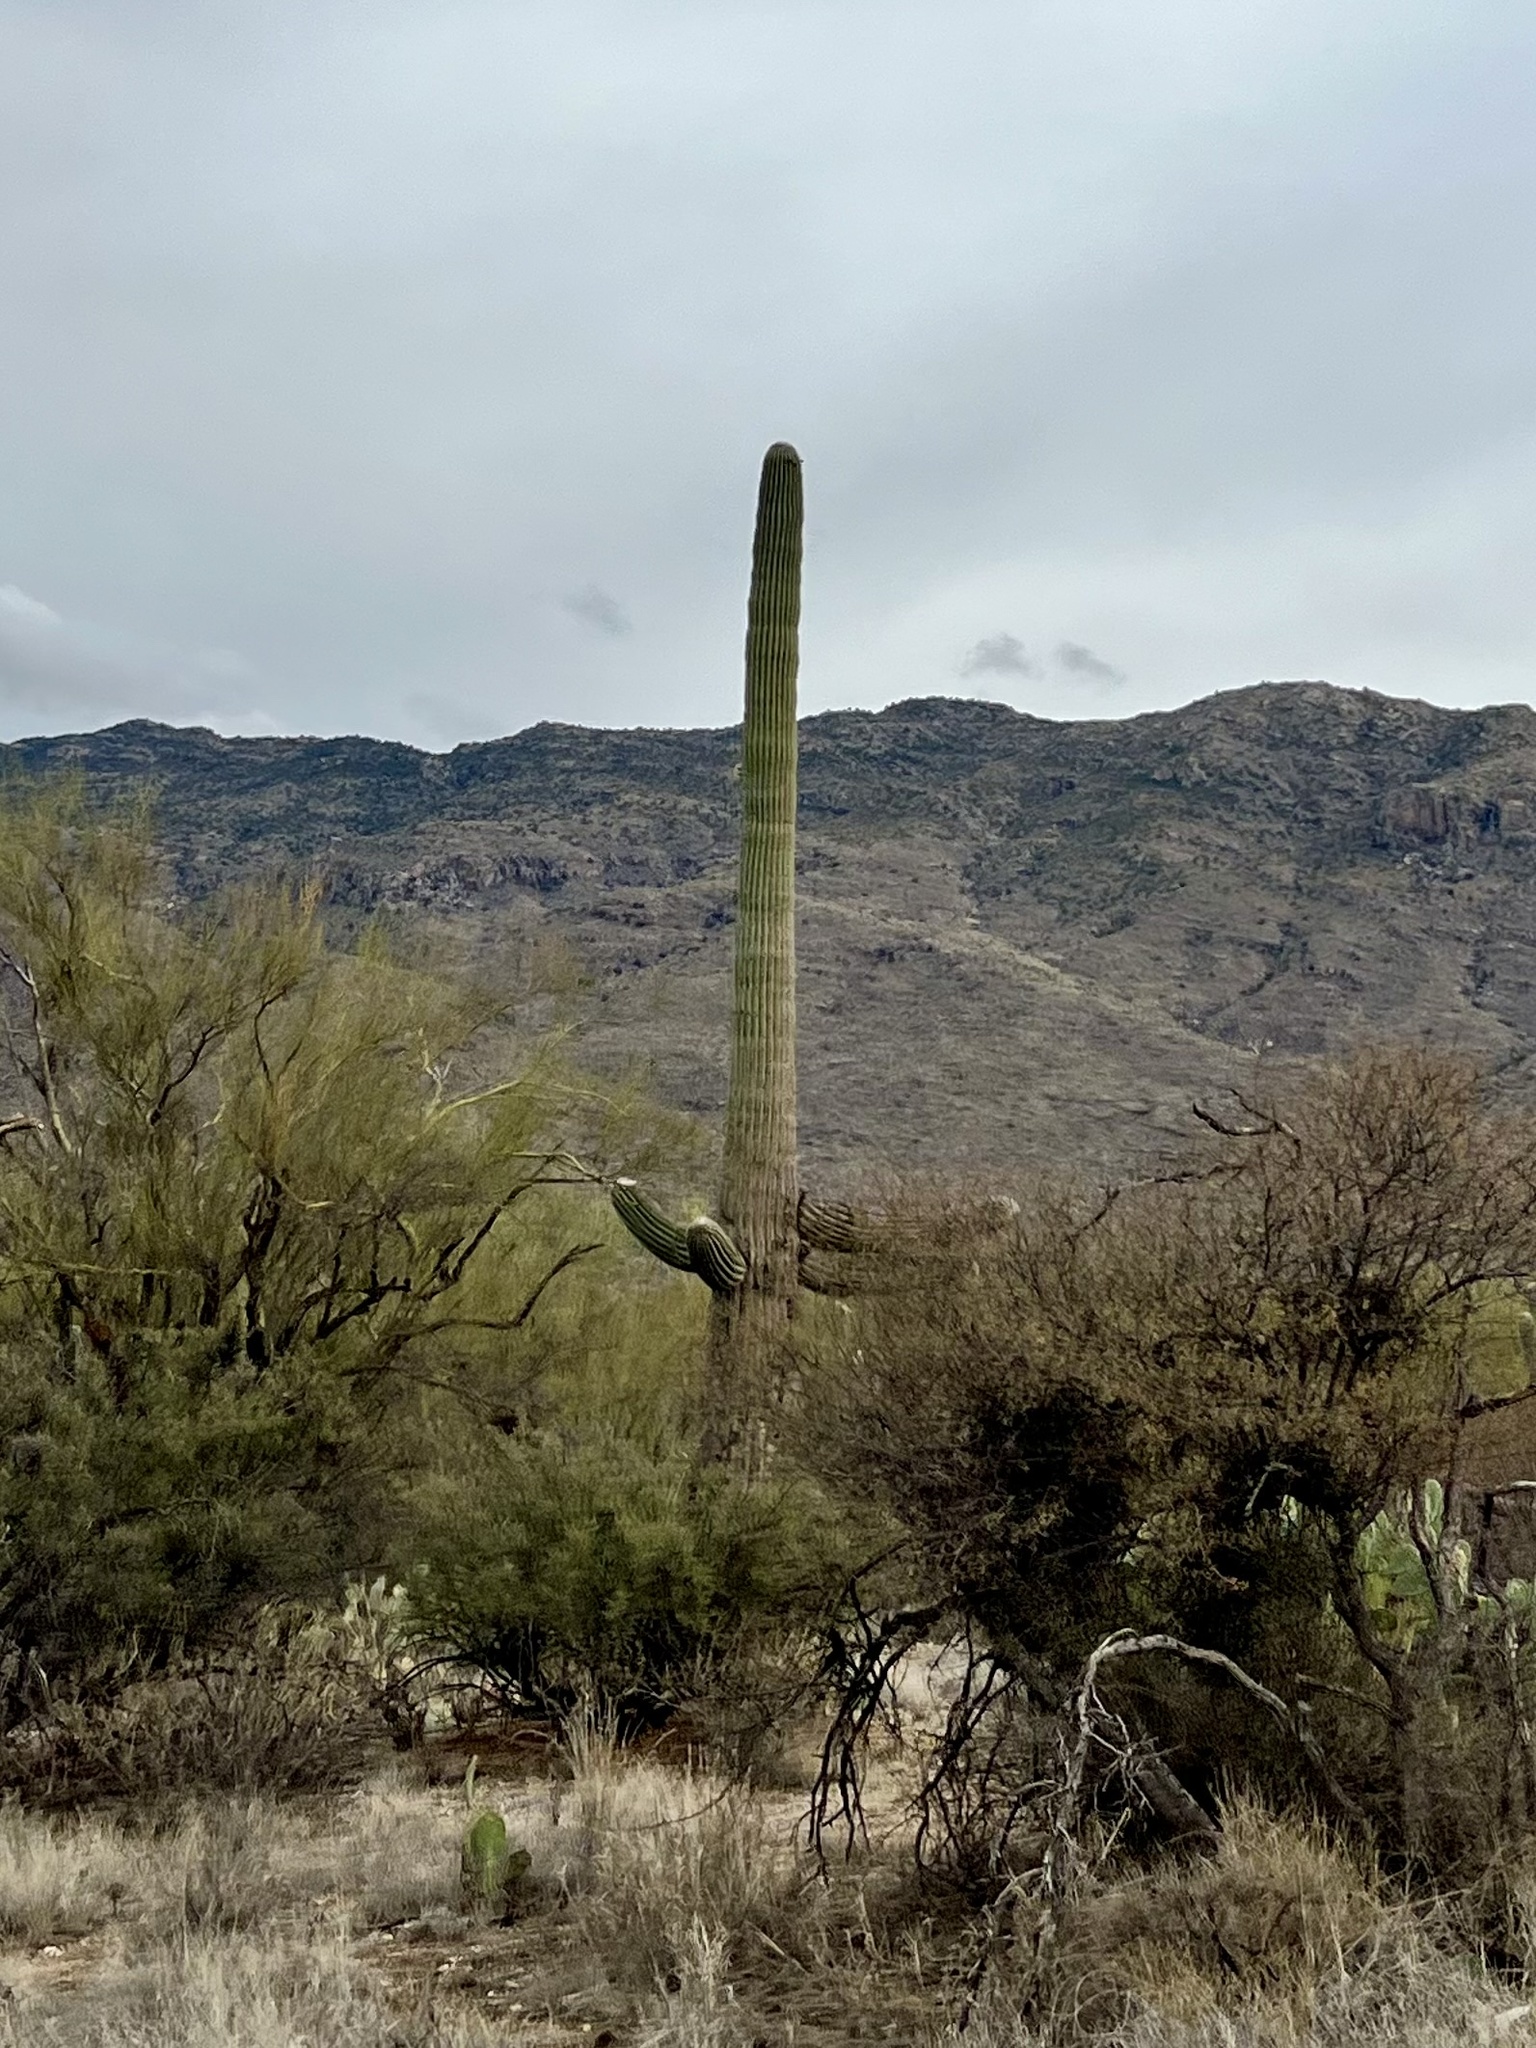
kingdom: Plantae
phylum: Tracheophyta
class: Magnoliopsida
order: Caryophyllales
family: Cactaceae
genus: Carnegiea
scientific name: Carnegiea gigantea
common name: Saguaro
